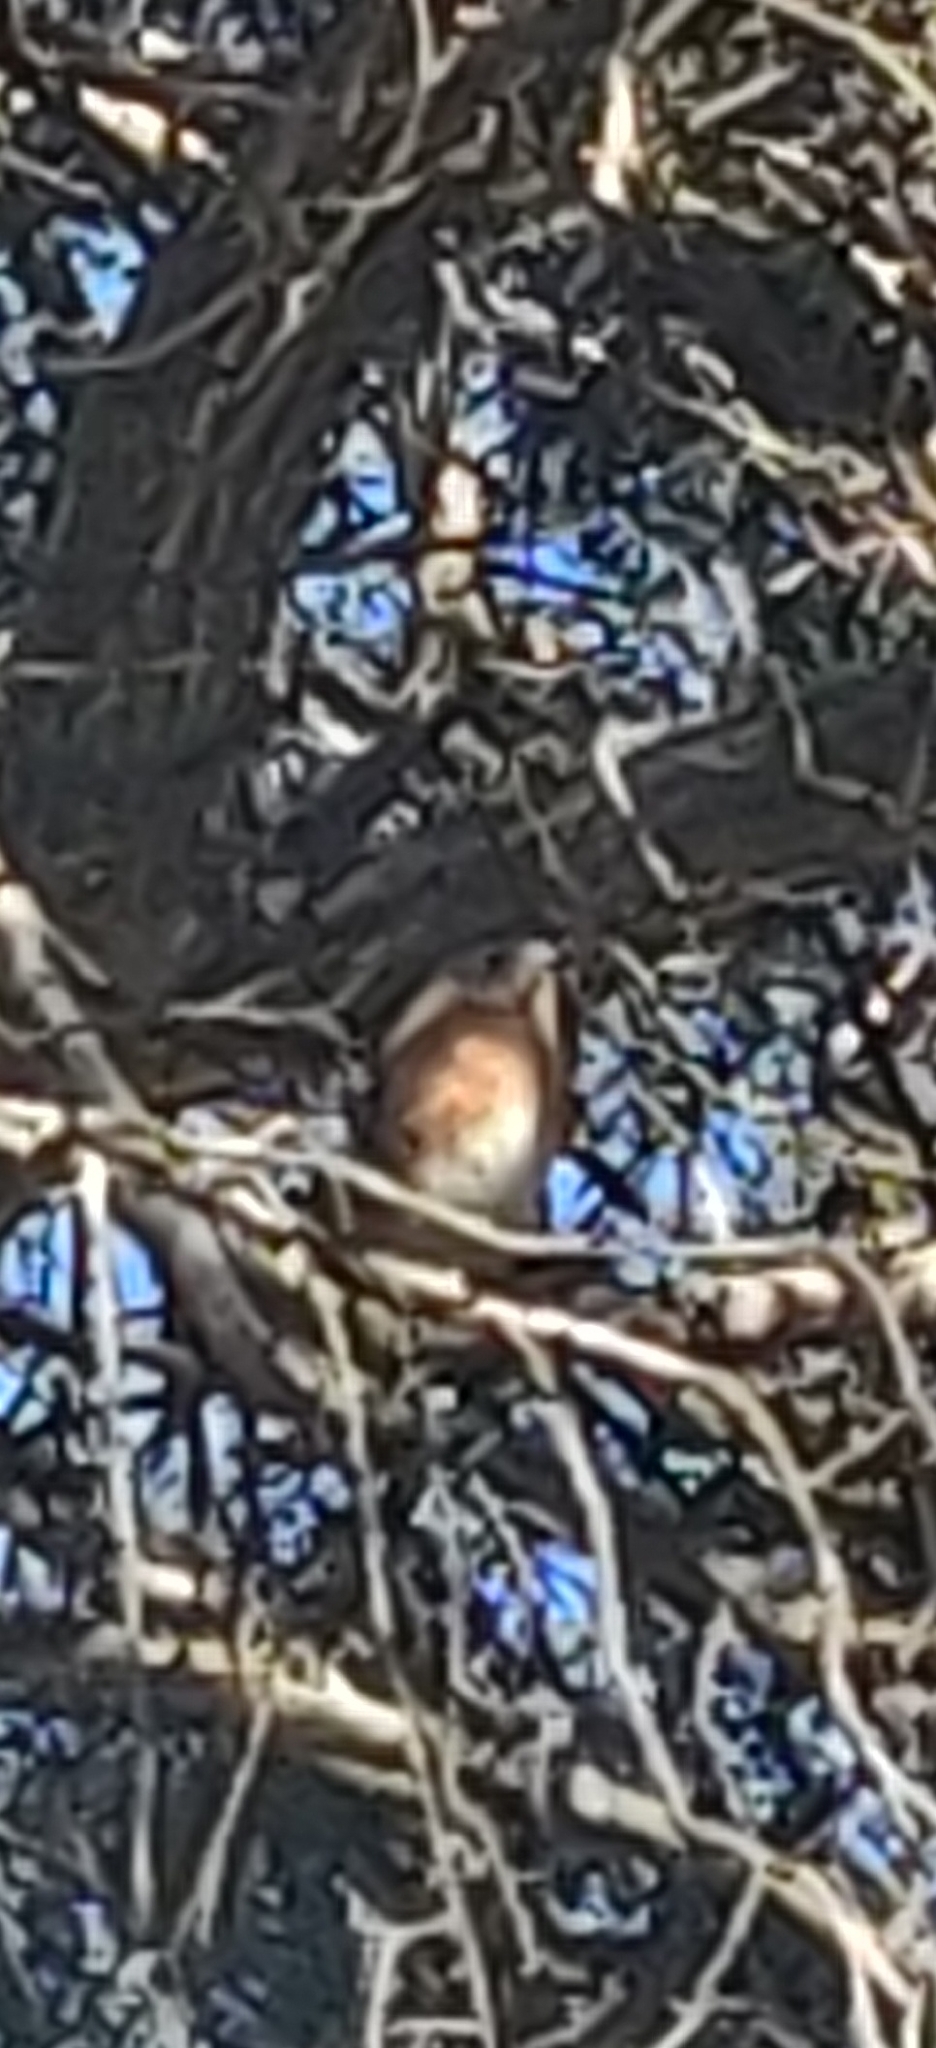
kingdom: Animalia
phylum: Chordata
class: Aves
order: Passeriformes
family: Turdidae
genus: Sialia
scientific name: Sialia sialis
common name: Eastern bluebird
